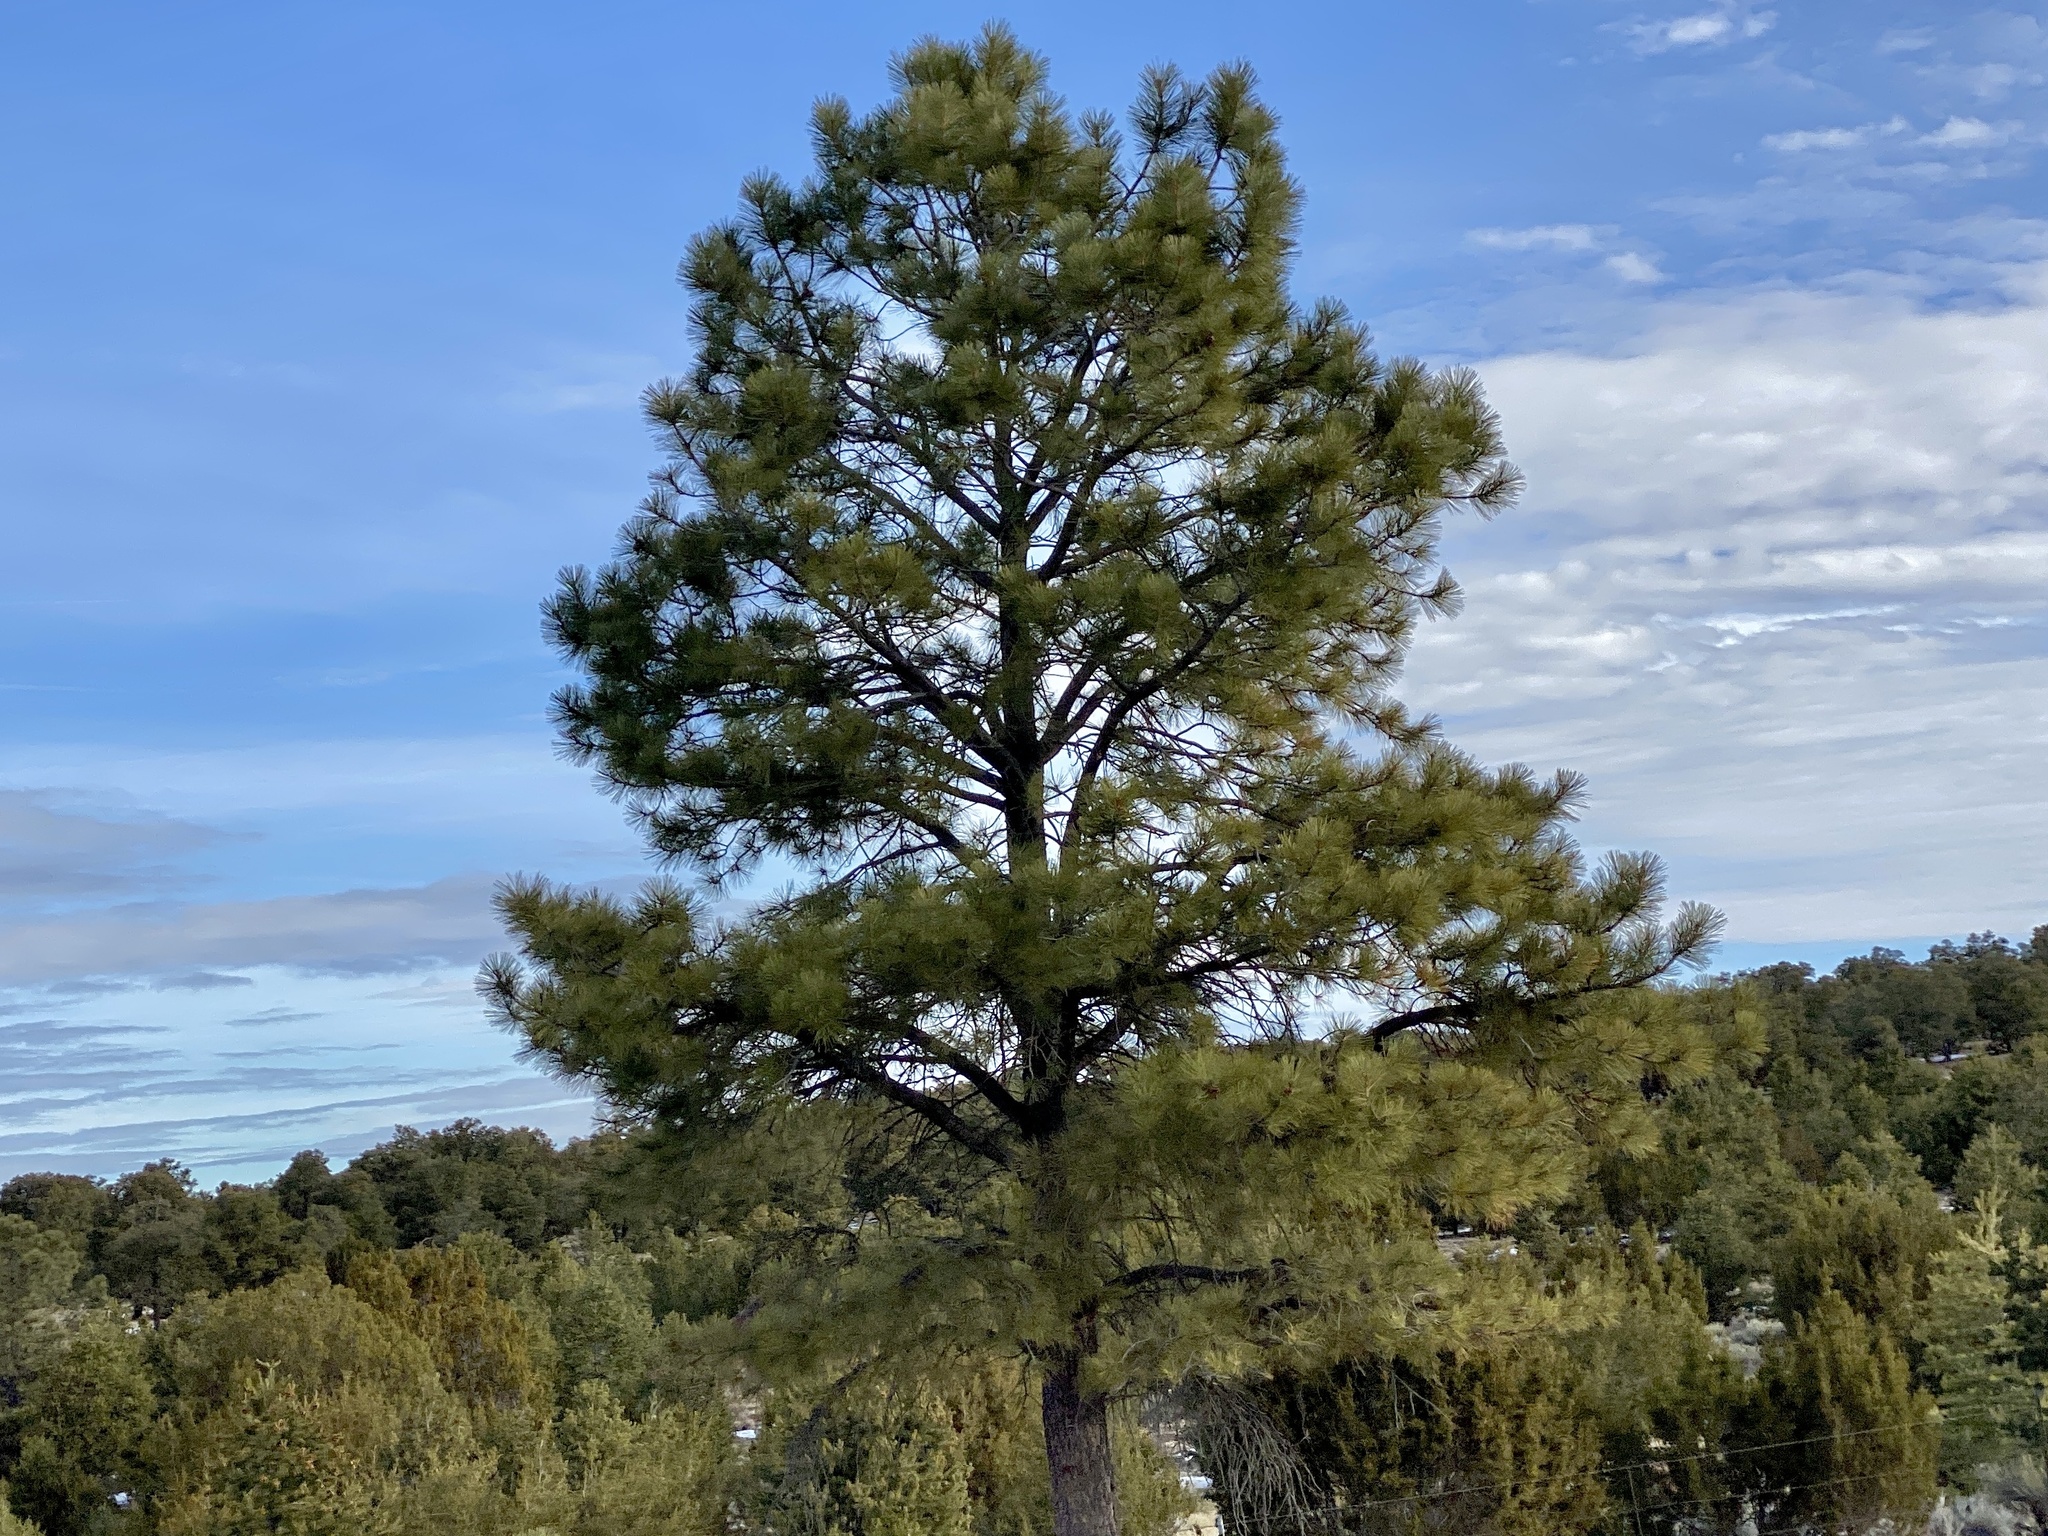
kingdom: Plantae
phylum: Tracheophyta
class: Pinopsida
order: Pinales
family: Pinaceae
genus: Pinus
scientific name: Pinus ponderosa
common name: Western yellow-pine
